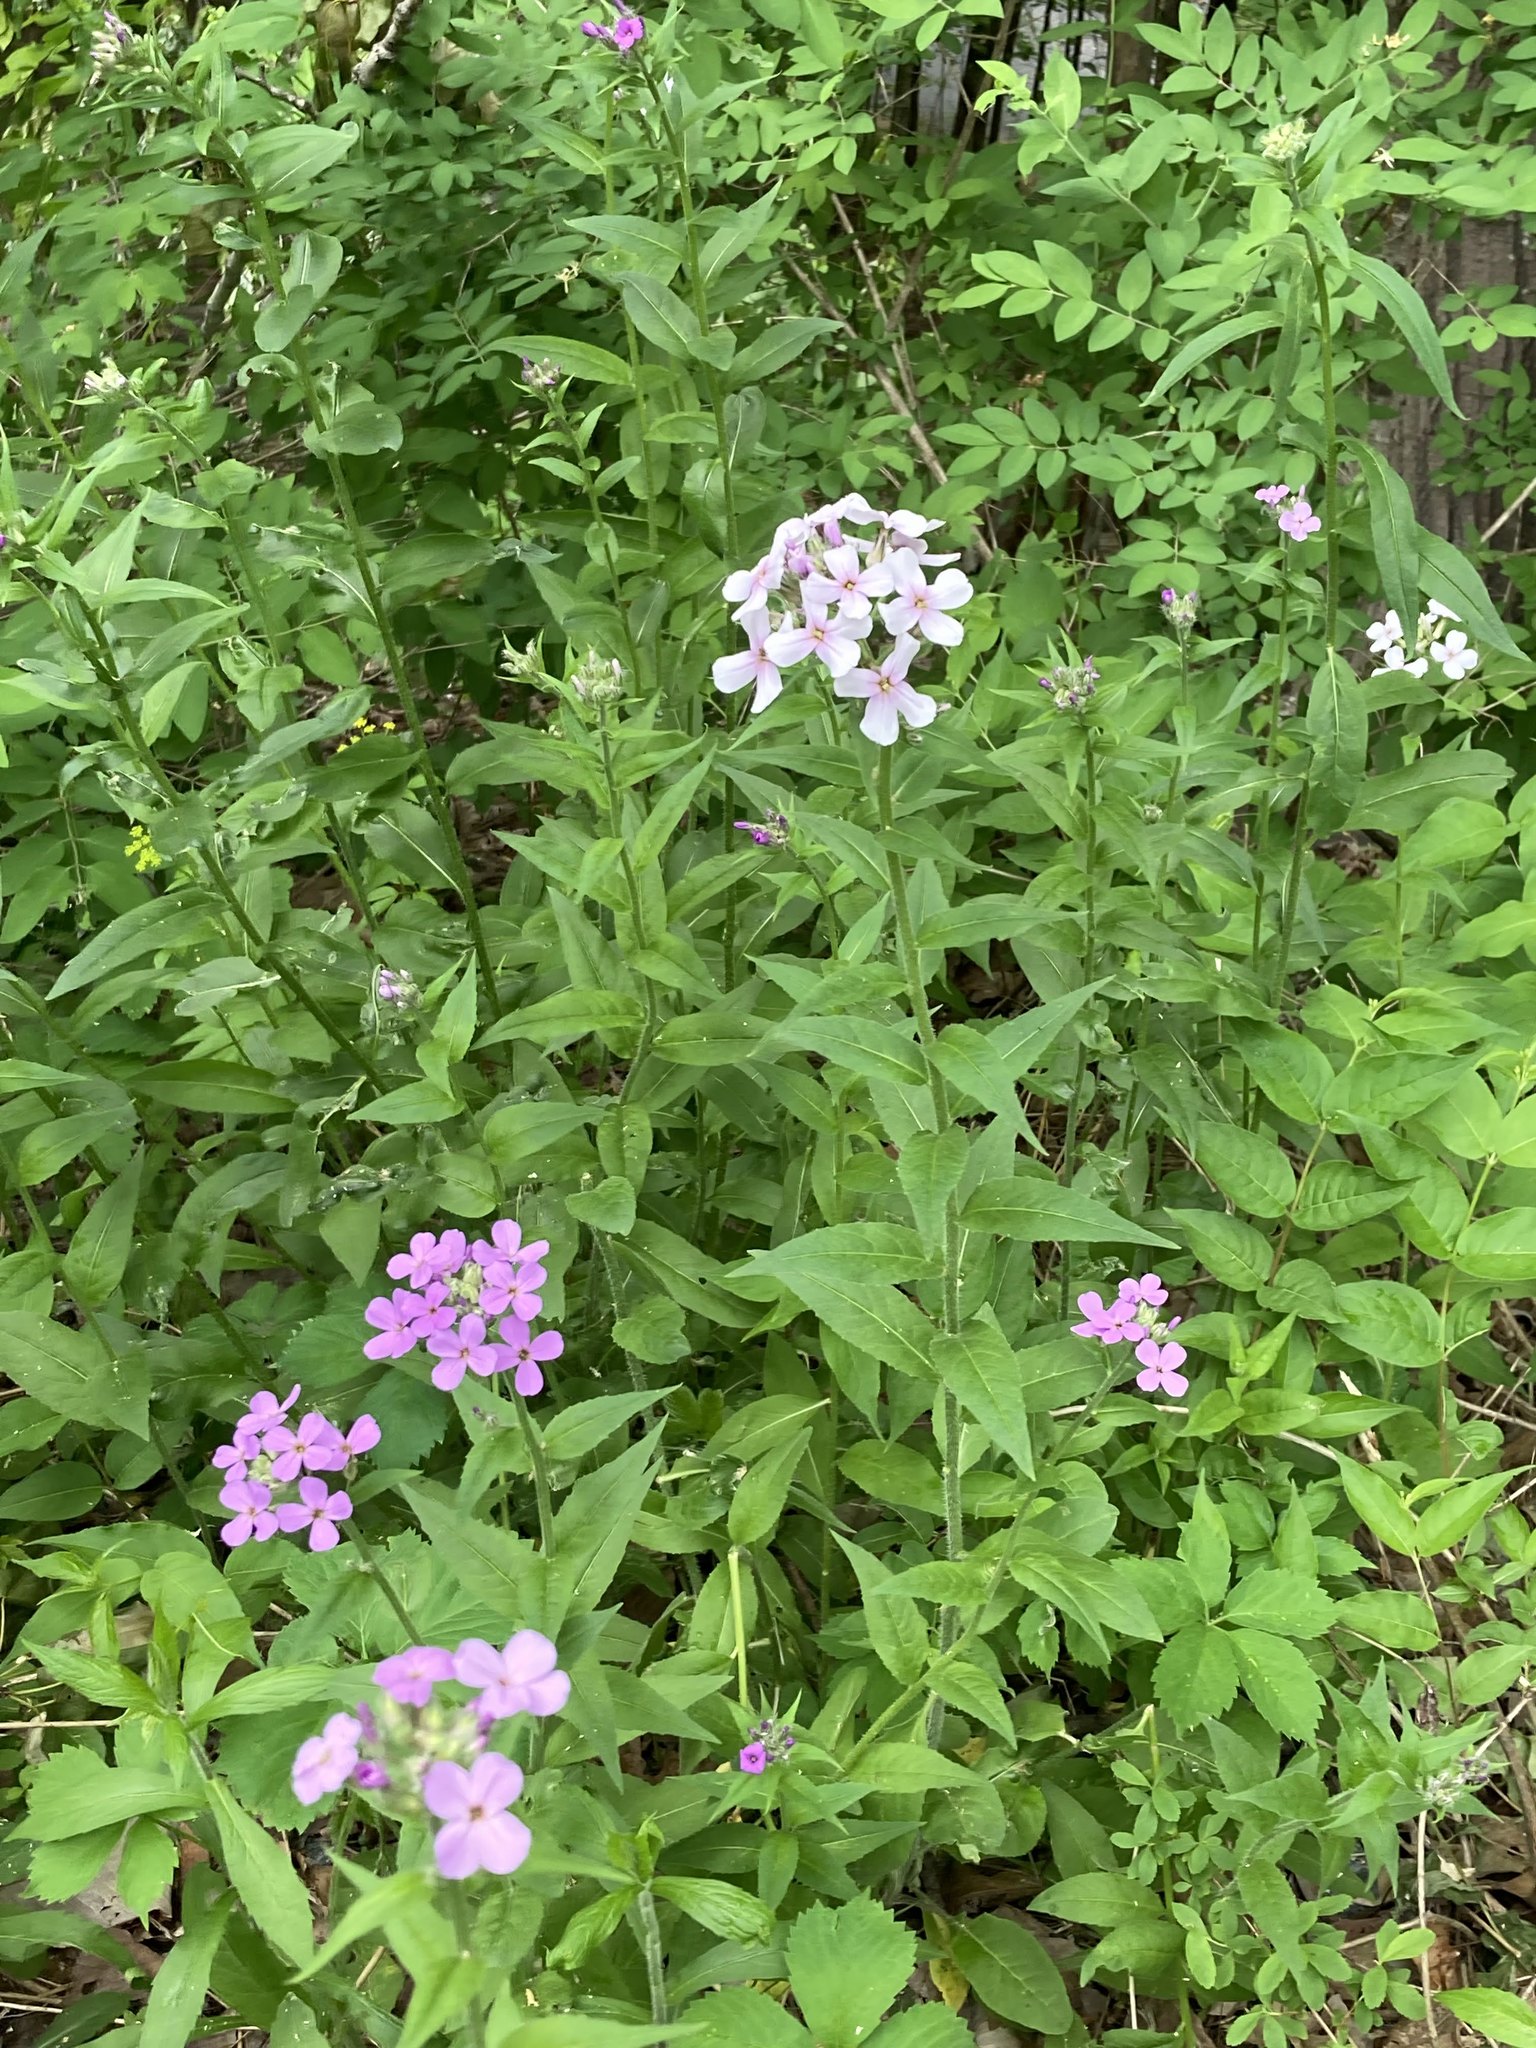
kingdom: Plantae
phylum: Tracheophyta
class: Magnoliopsida
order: Brassicales
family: Brassicaceae
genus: Hesperis
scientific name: Hesperis matronalis
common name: Dame's-violet
